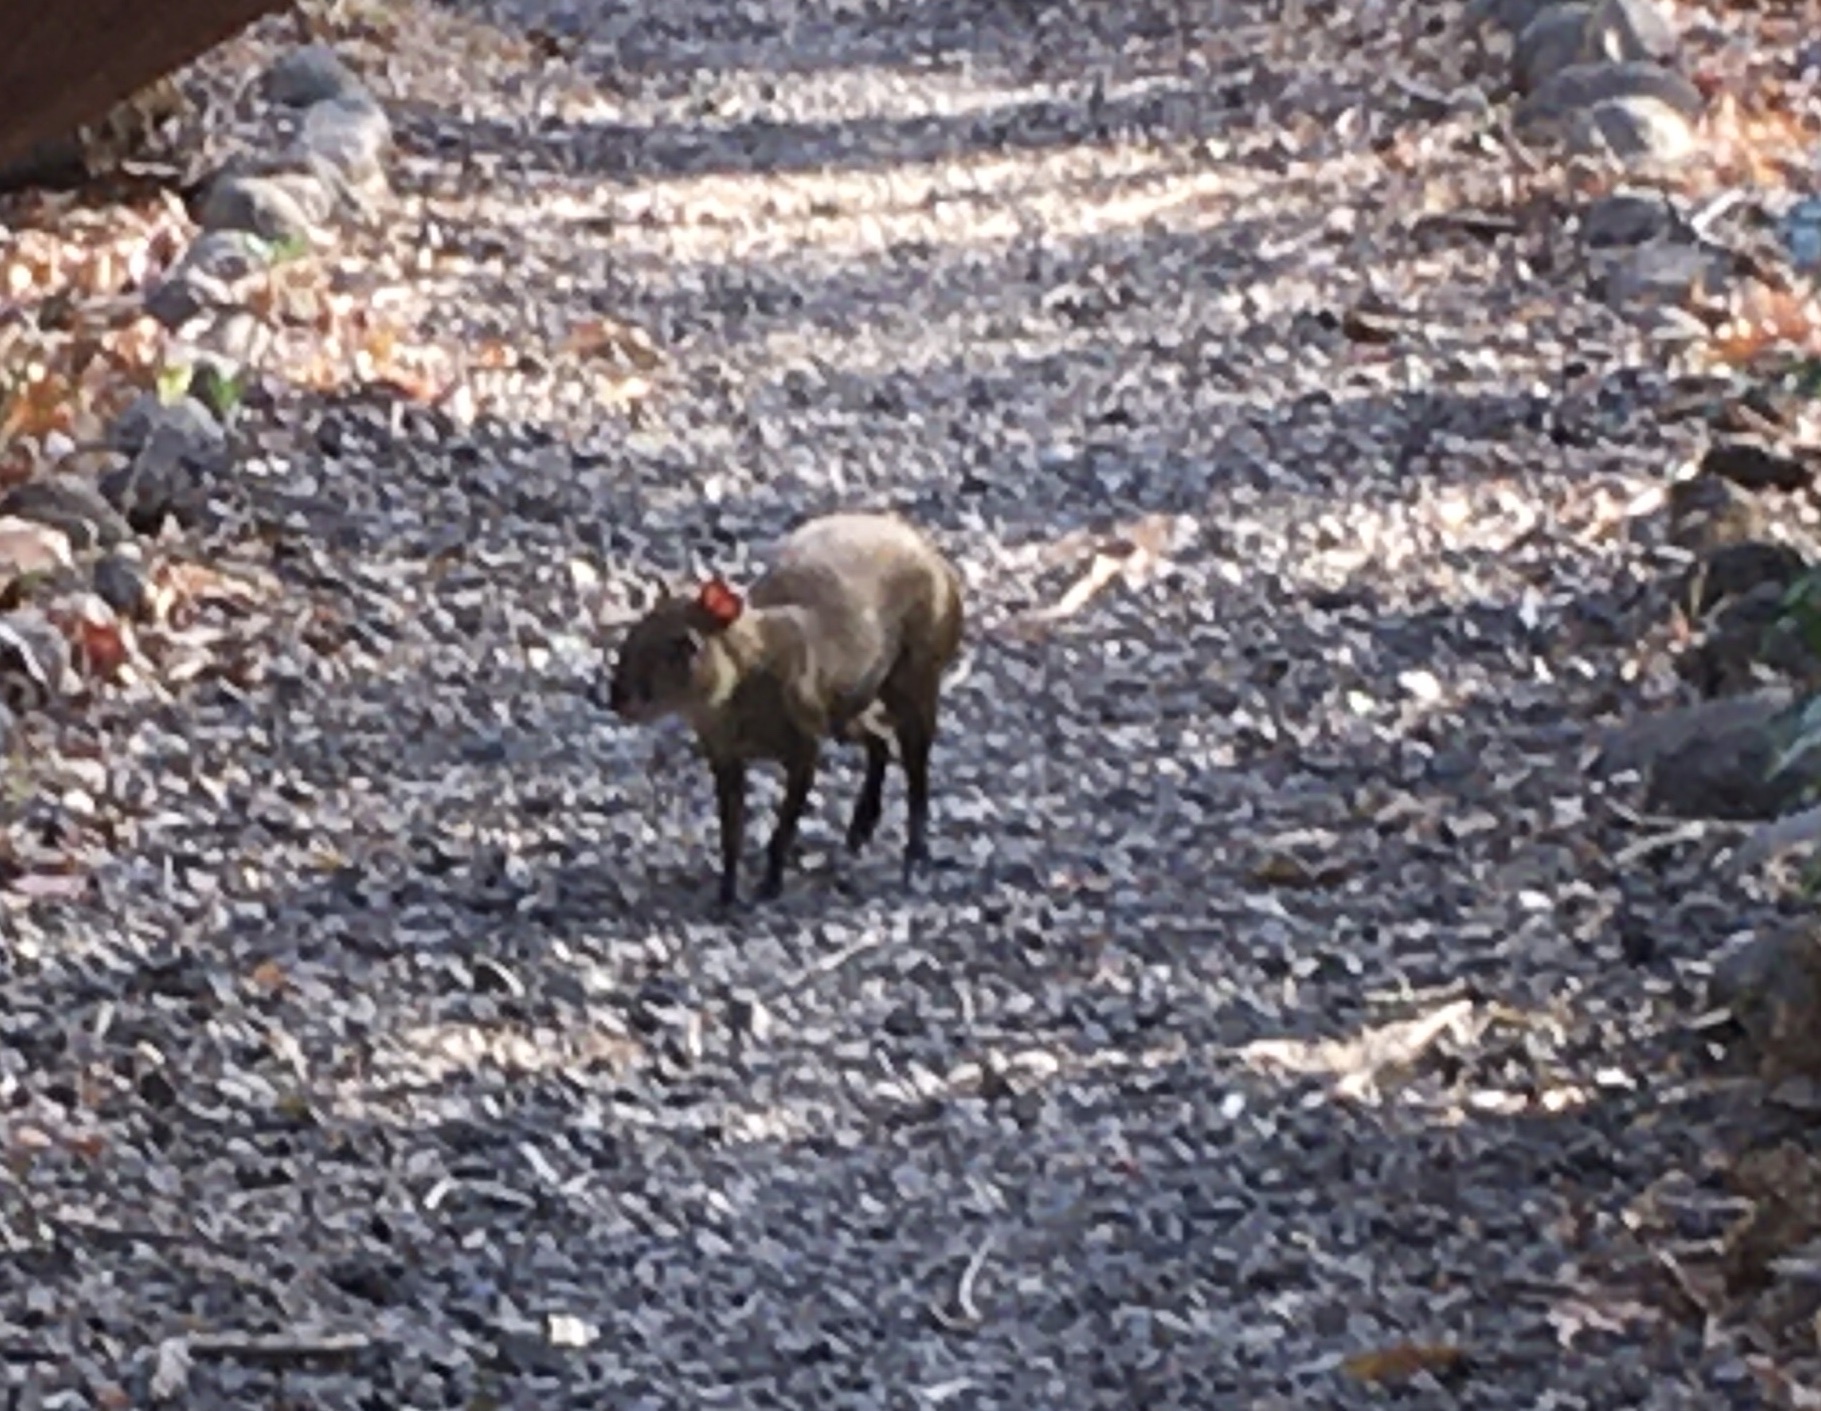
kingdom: Animalia
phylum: Chordata
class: Mammalia
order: Rodentia
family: Dasyproctidae
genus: Dasyprocta
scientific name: Dasyprocta punctata
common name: Central american agouti
